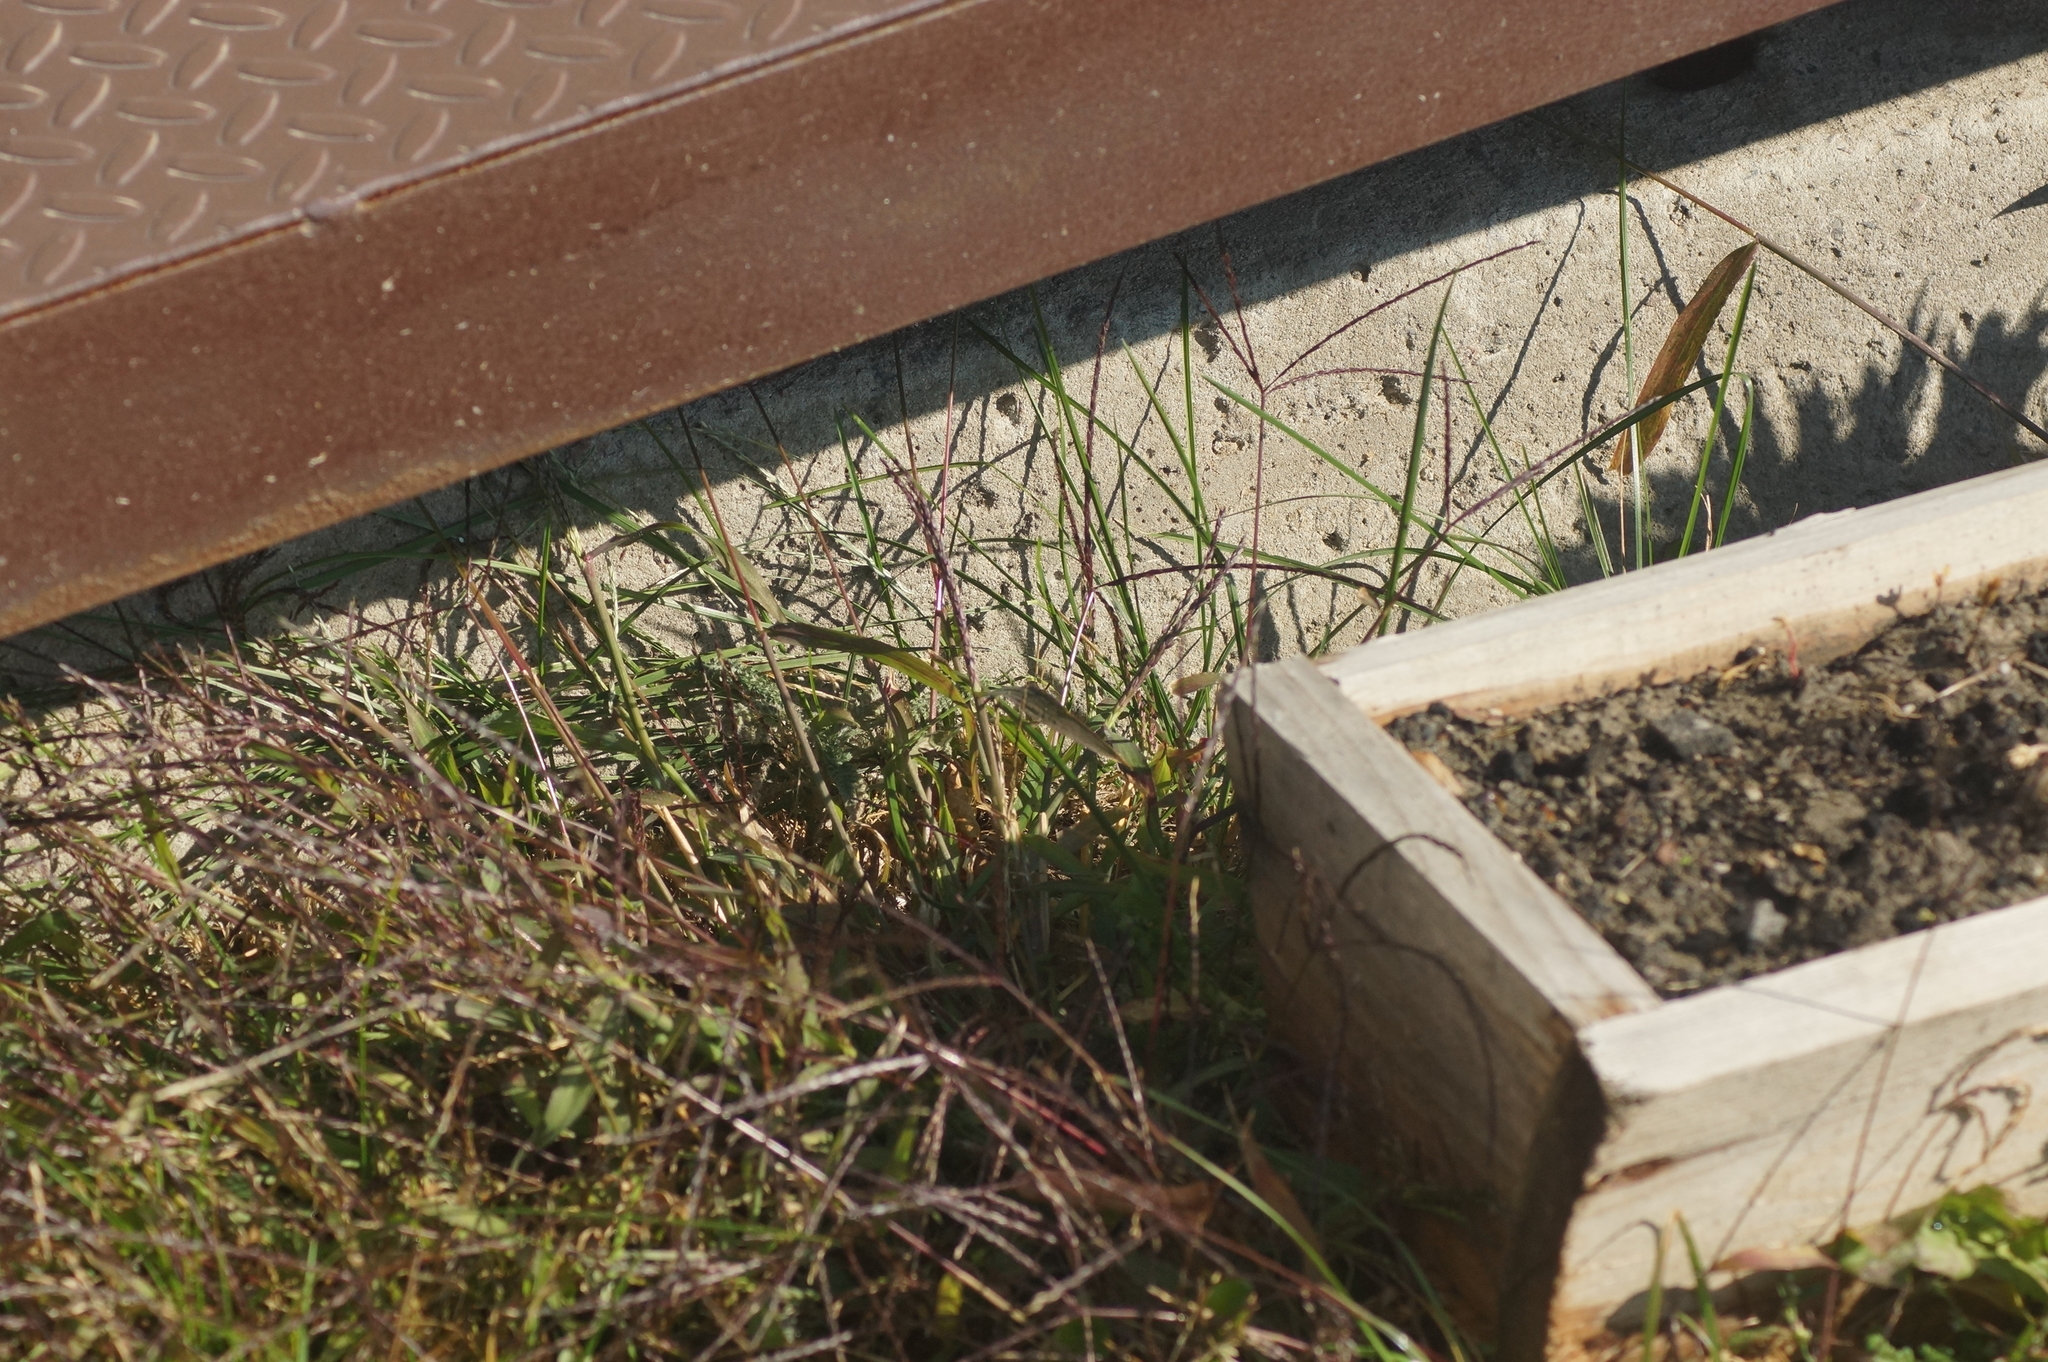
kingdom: Plantae
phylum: Tracheophyta
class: Liliopsida
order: Poales
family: Poaceae
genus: Digitaria
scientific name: Digitaria sanguinalis
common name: Hairy crabgrass
